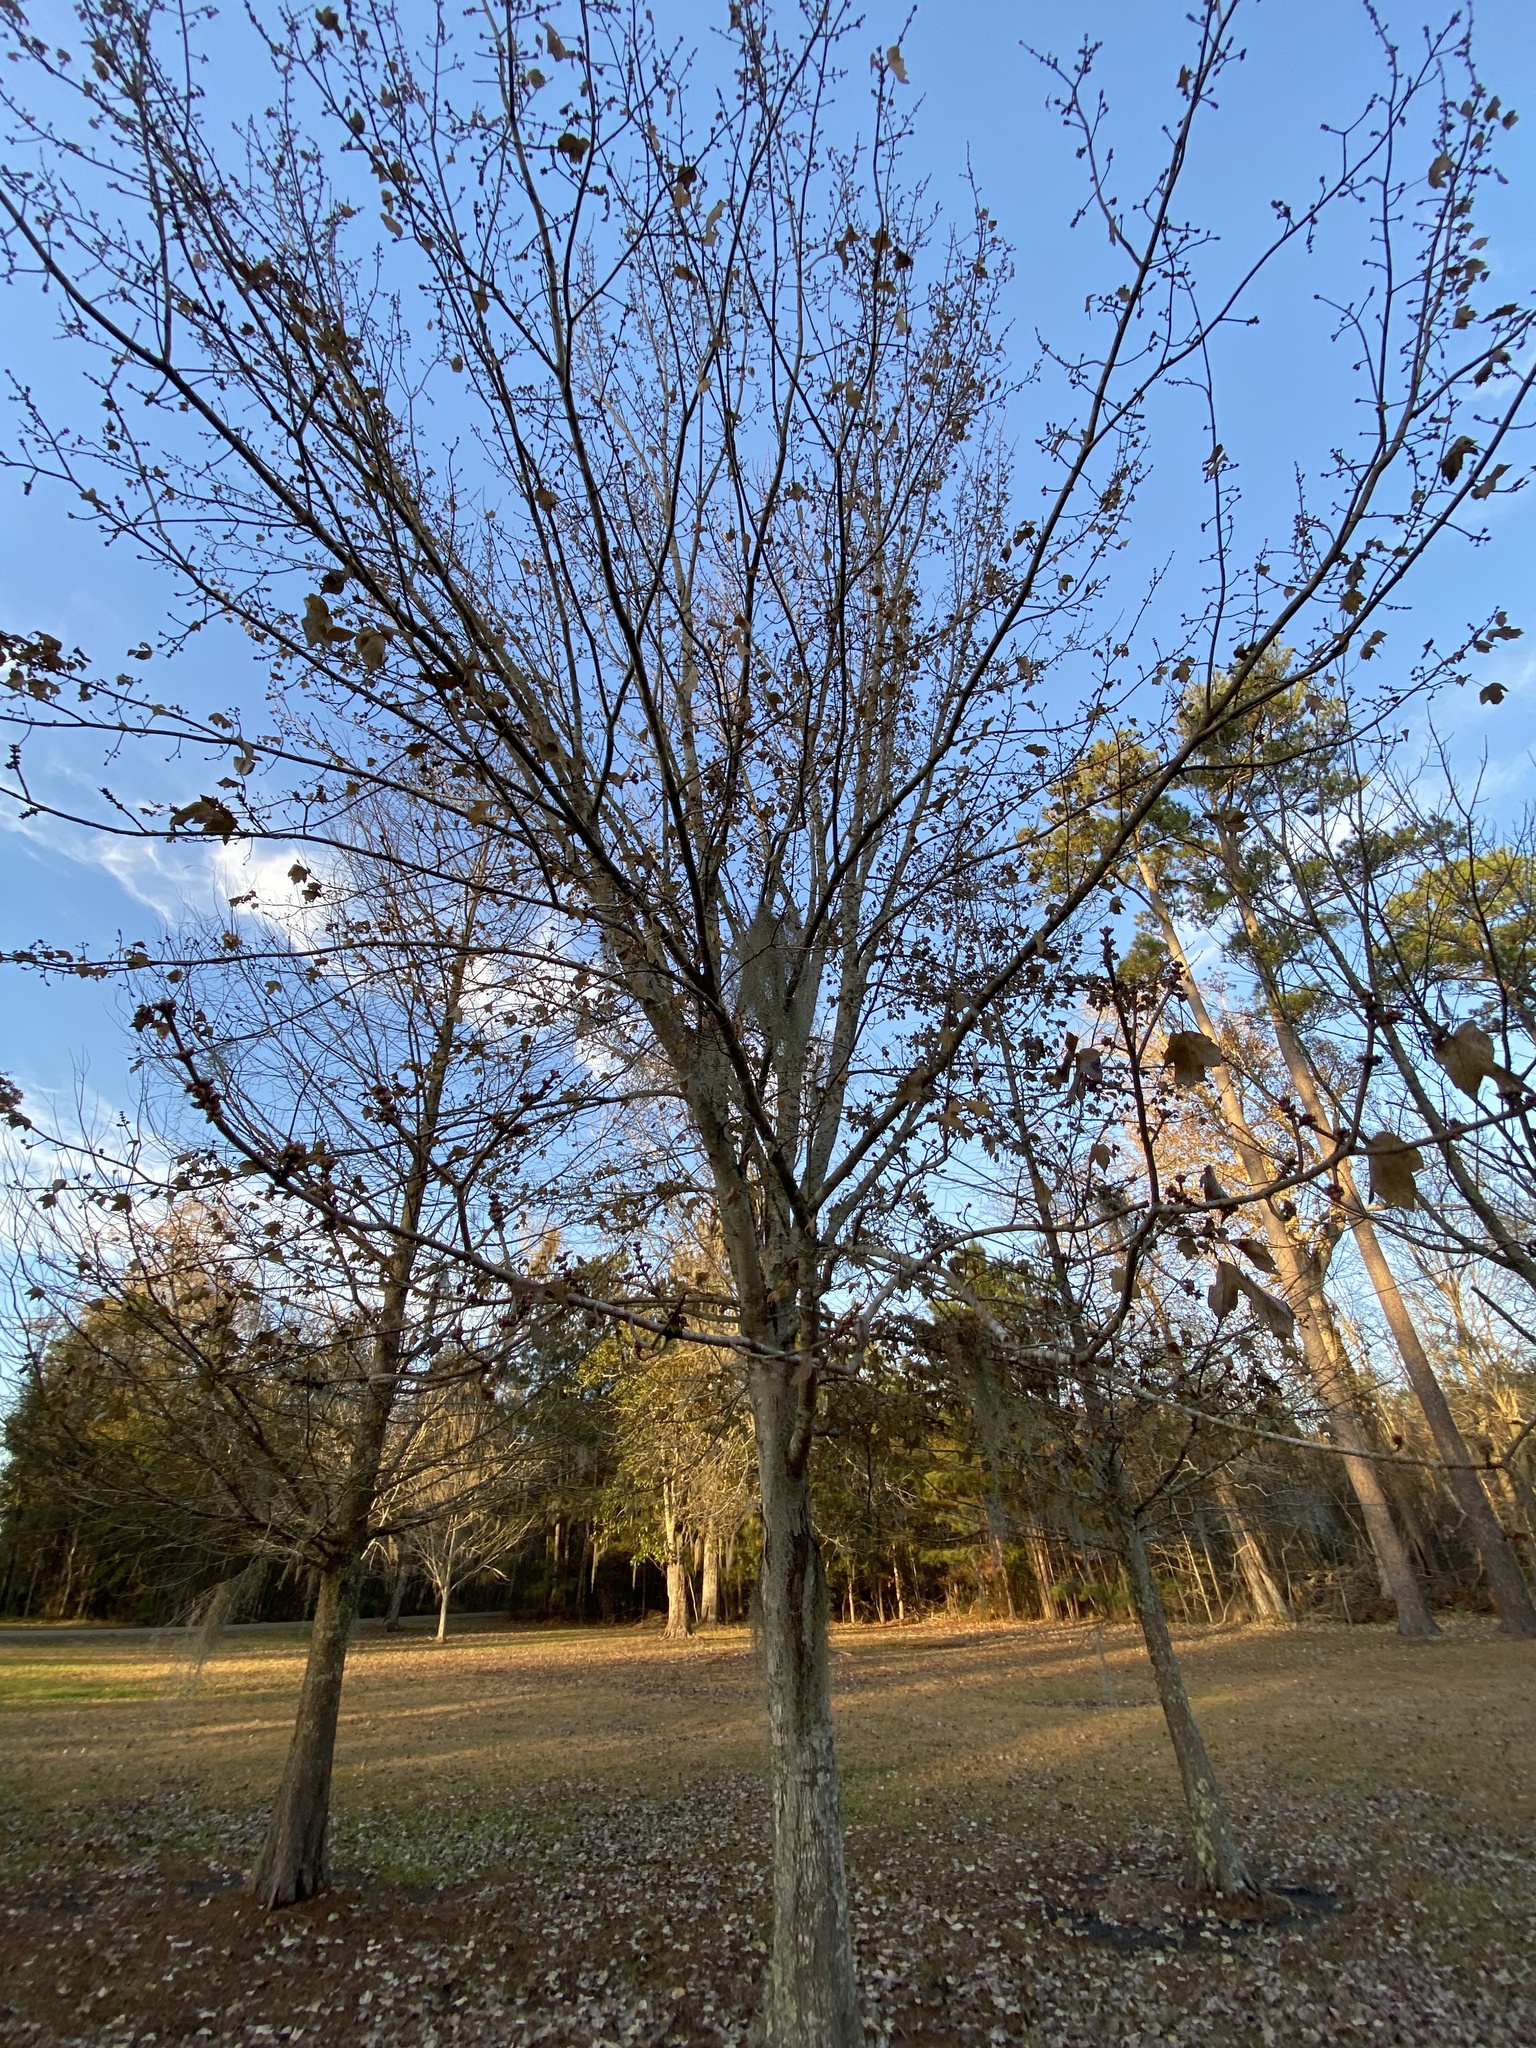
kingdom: Plantae
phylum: Tracheophyta
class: Magnoliopsida
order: Sapindales
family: Sapindaceae
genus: Acer
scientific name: Acer rubrum
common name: Red maple
